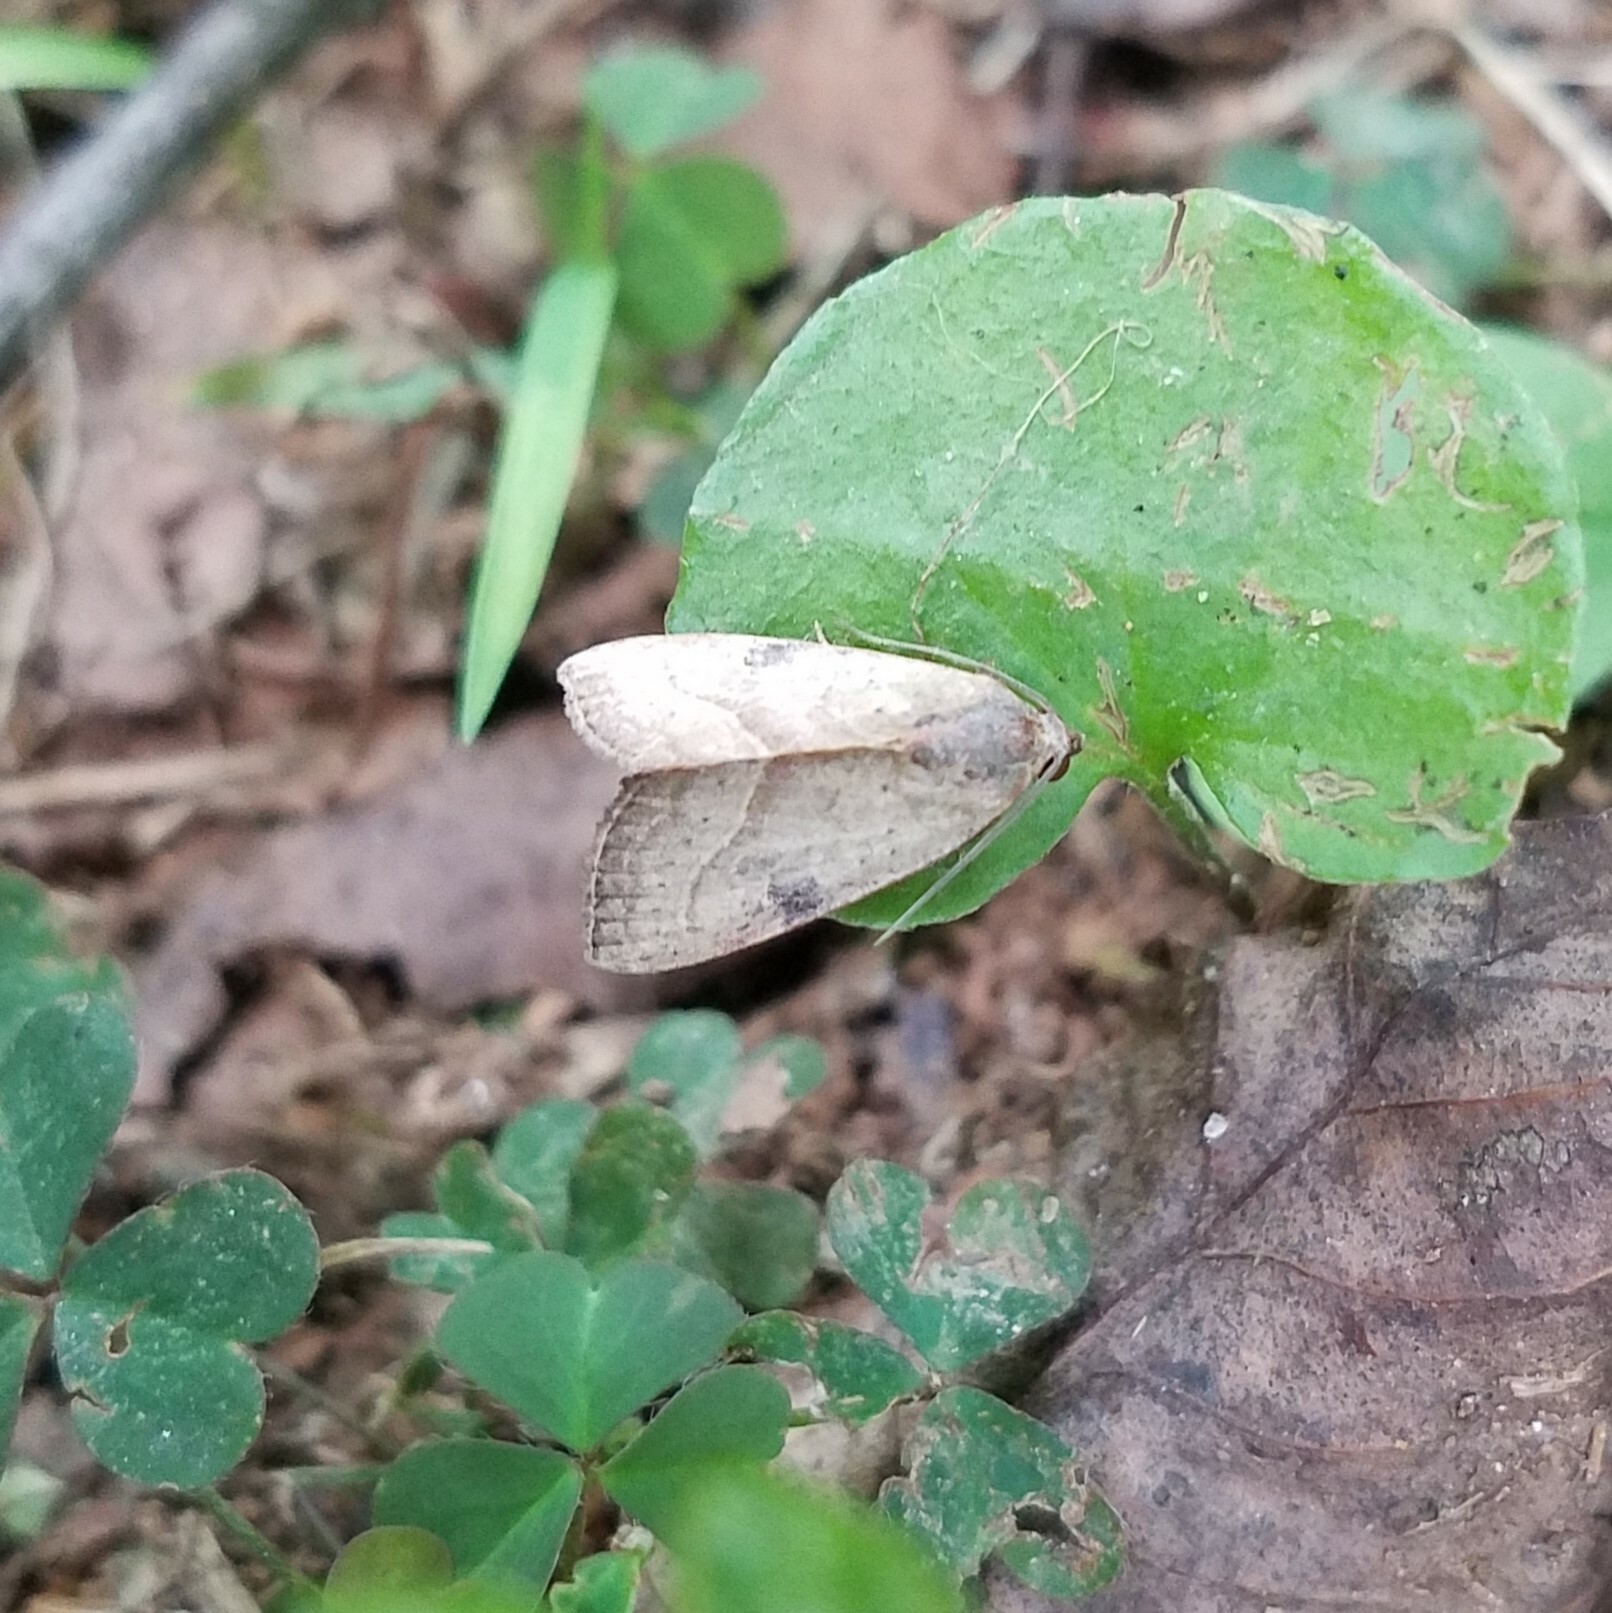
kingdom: Animalia
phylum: Arthropoda
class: Insecta
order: Lepidoptera
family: Noctuidae
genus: Galgula
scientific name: Galgula partita
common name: Wedgeling
